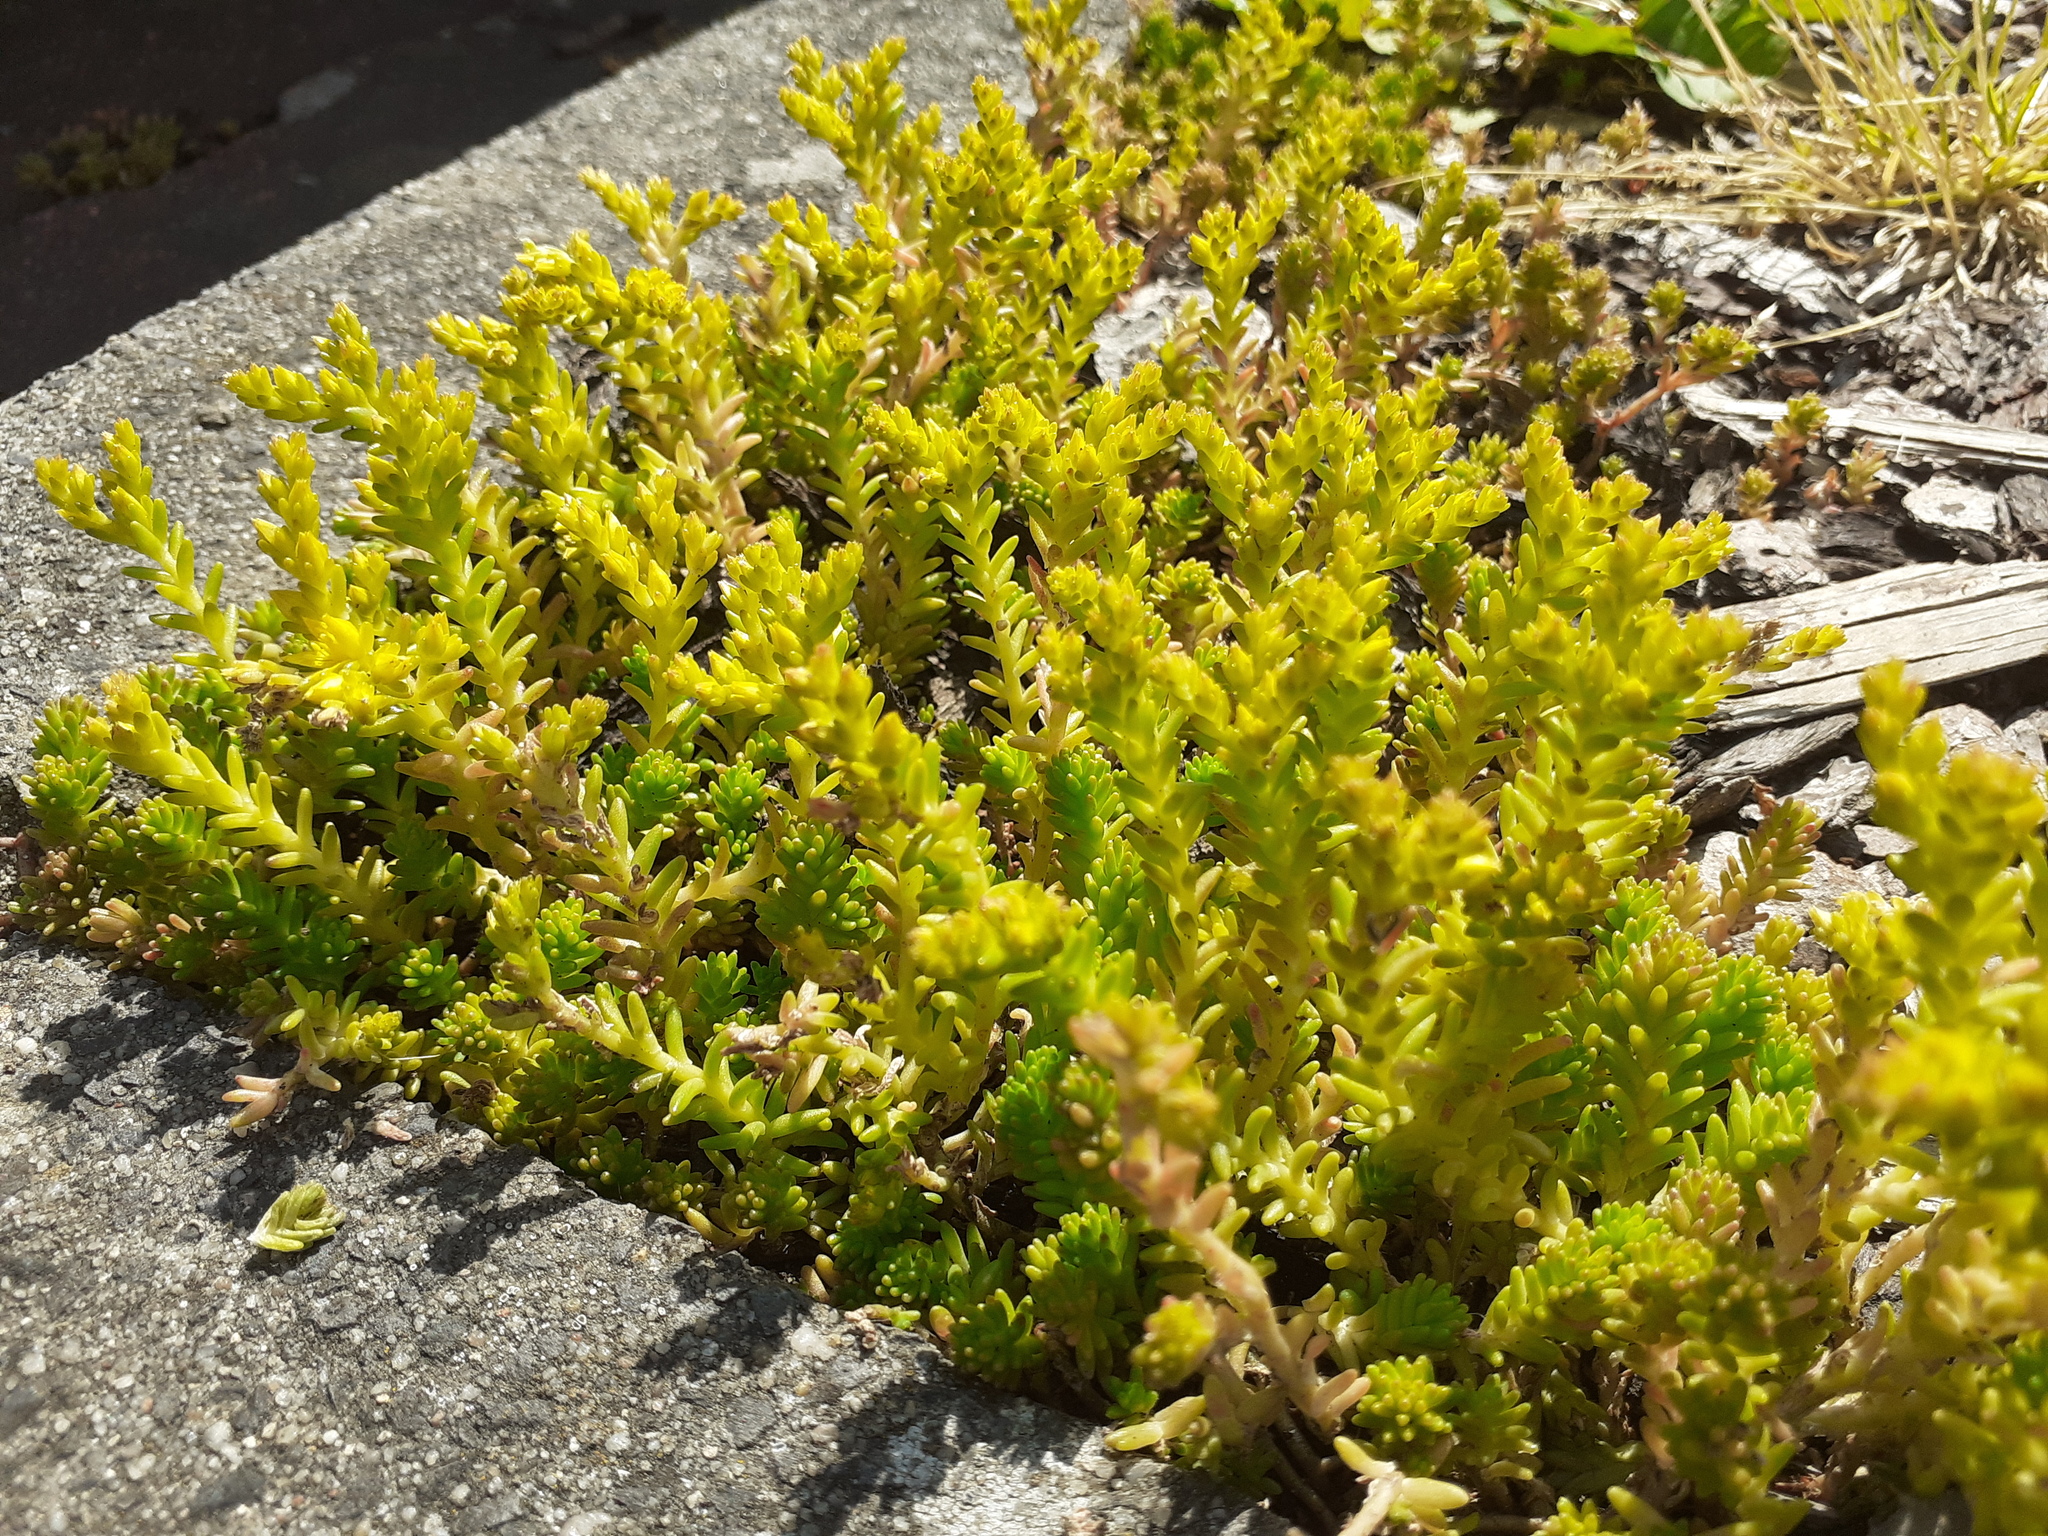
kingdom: Plantae
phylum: Tracheophyta
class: Magnoliopsida
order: Saxifragales
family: Crassulaceae
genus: Sedum
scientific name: Sedum acre
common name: Biting stonecrop
